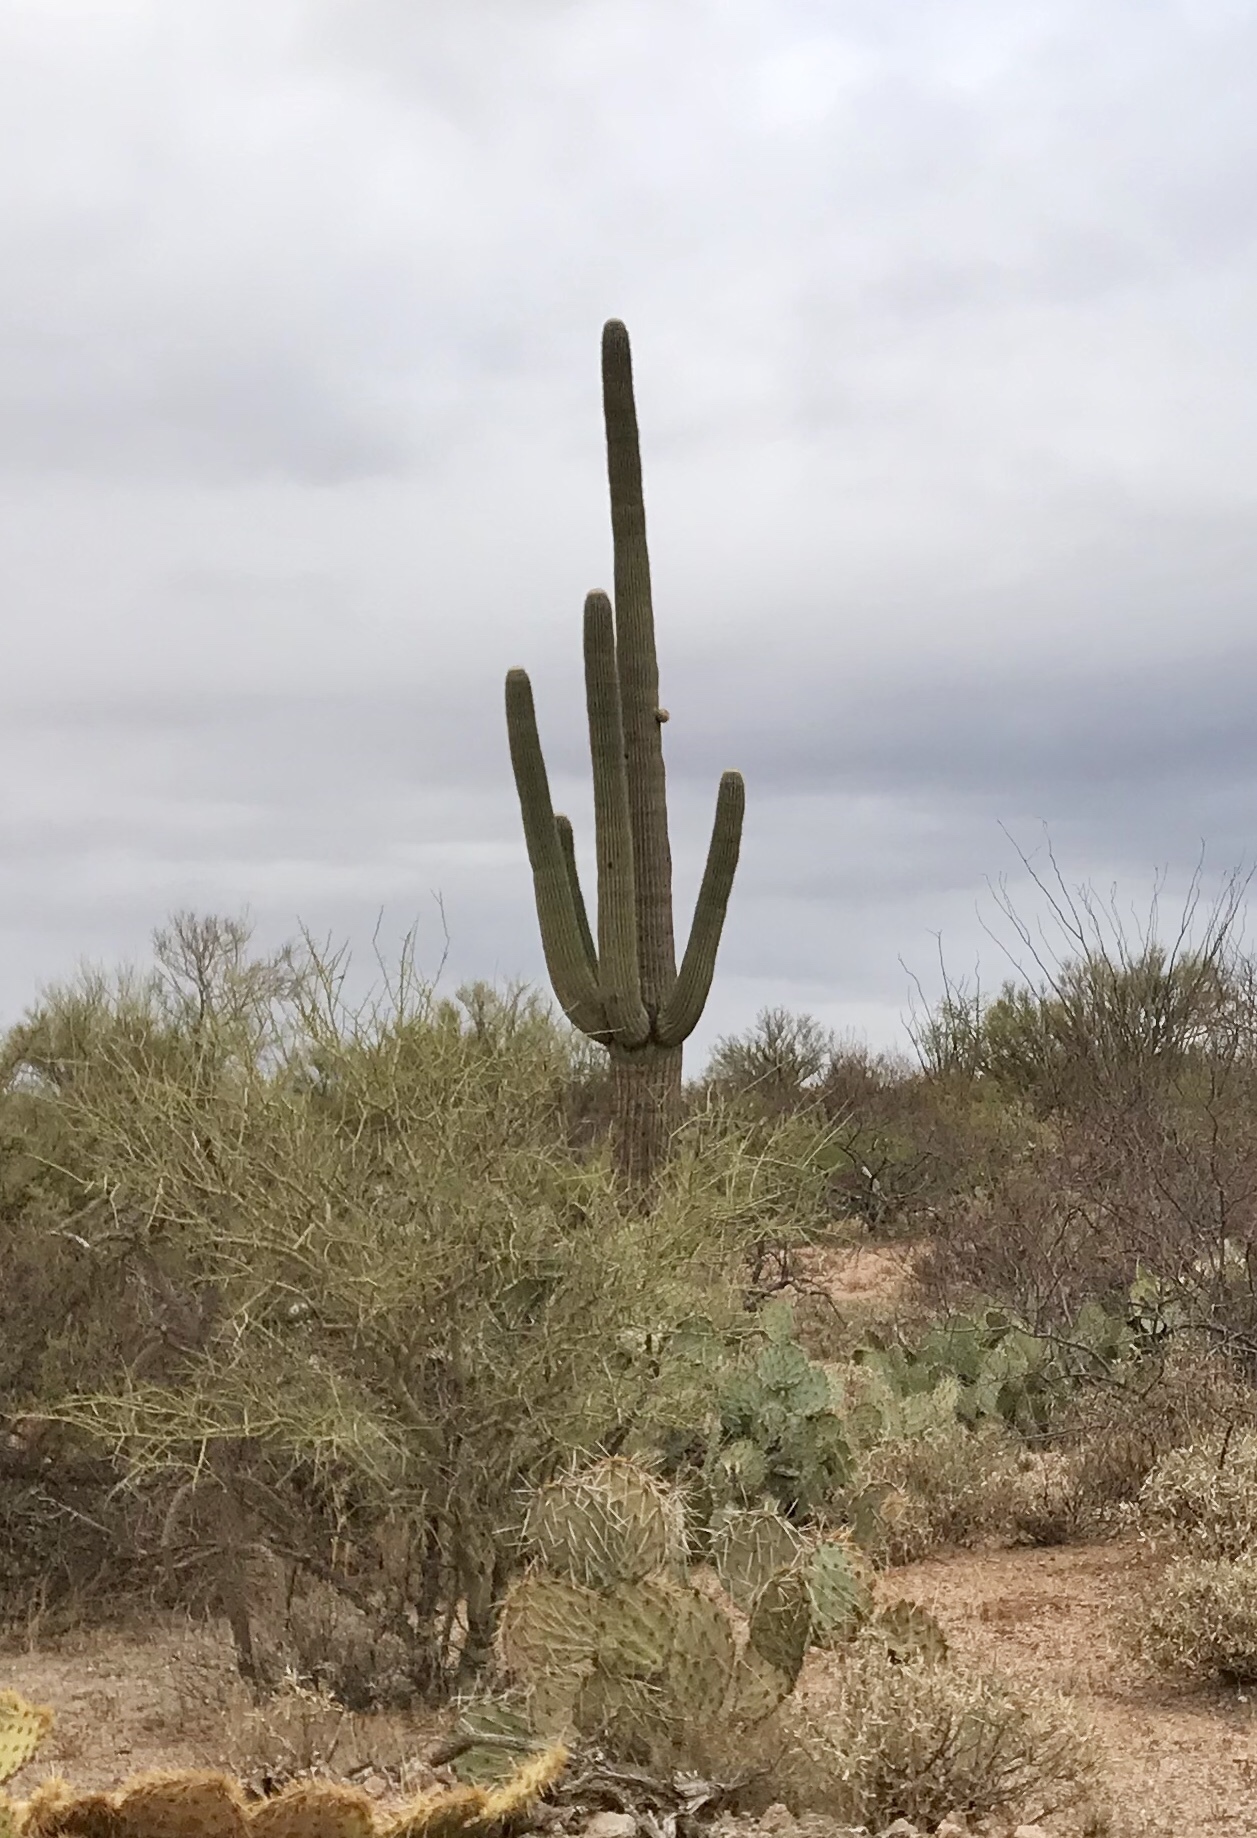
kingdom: Plantae
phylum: Tracheophyta
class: Magnoliopsida
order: Caryophyllales
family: Cactaceae
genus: Carnegiea
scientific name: Carnegiea gigantea
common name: Saguaro
